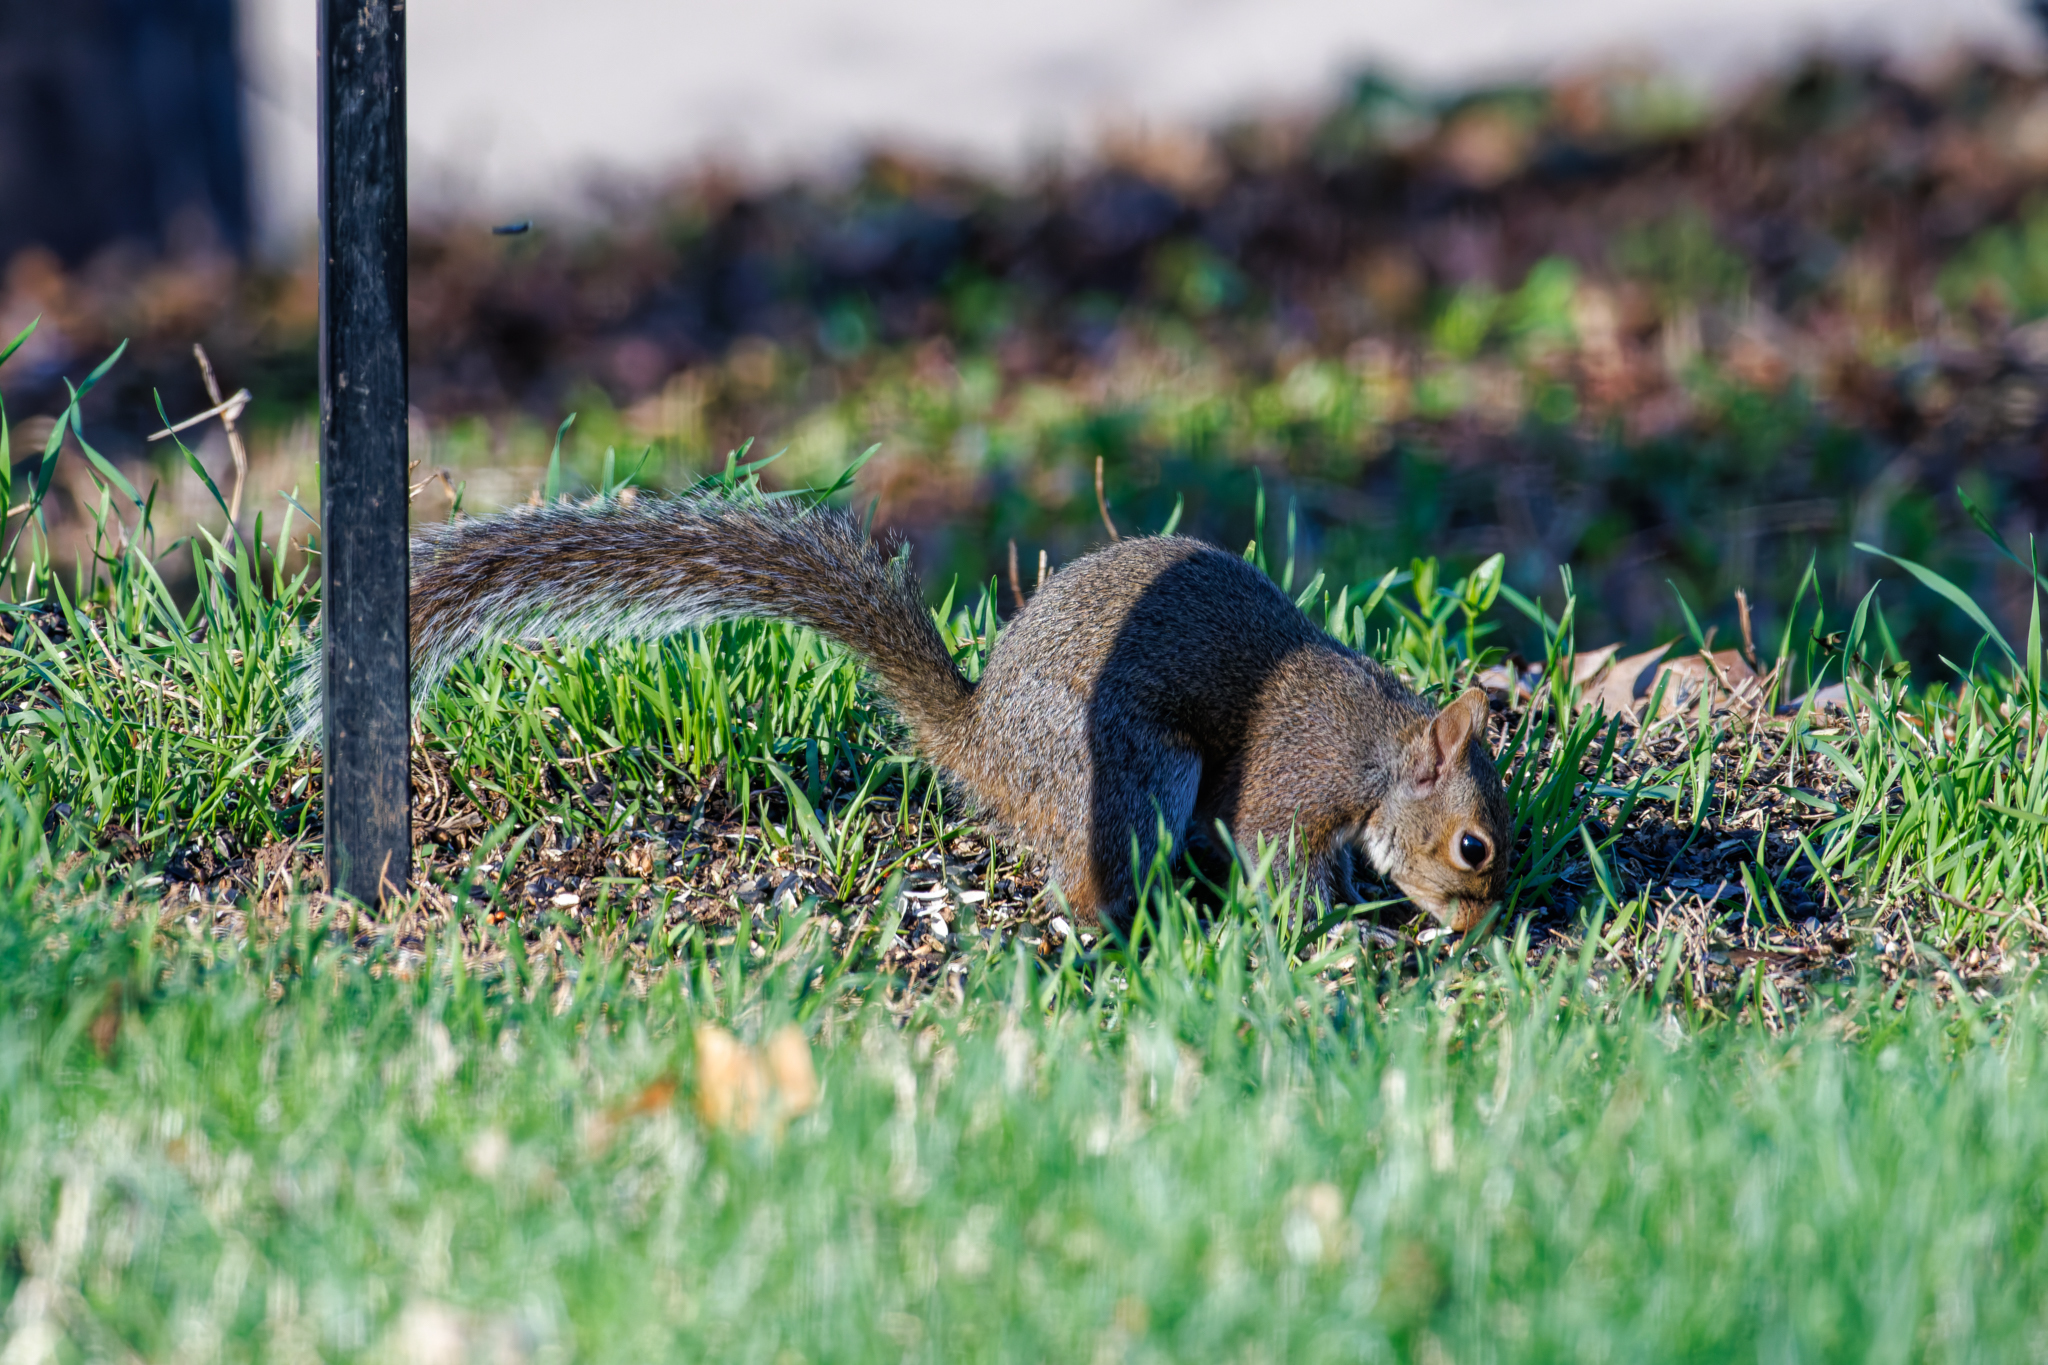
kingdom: Animalia
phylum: Chordata
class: Mammalia
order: Rodentia
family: Sciuridae
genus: Sciurus
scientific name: Sciurus carolinensis
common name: Eastern gray squirrel
